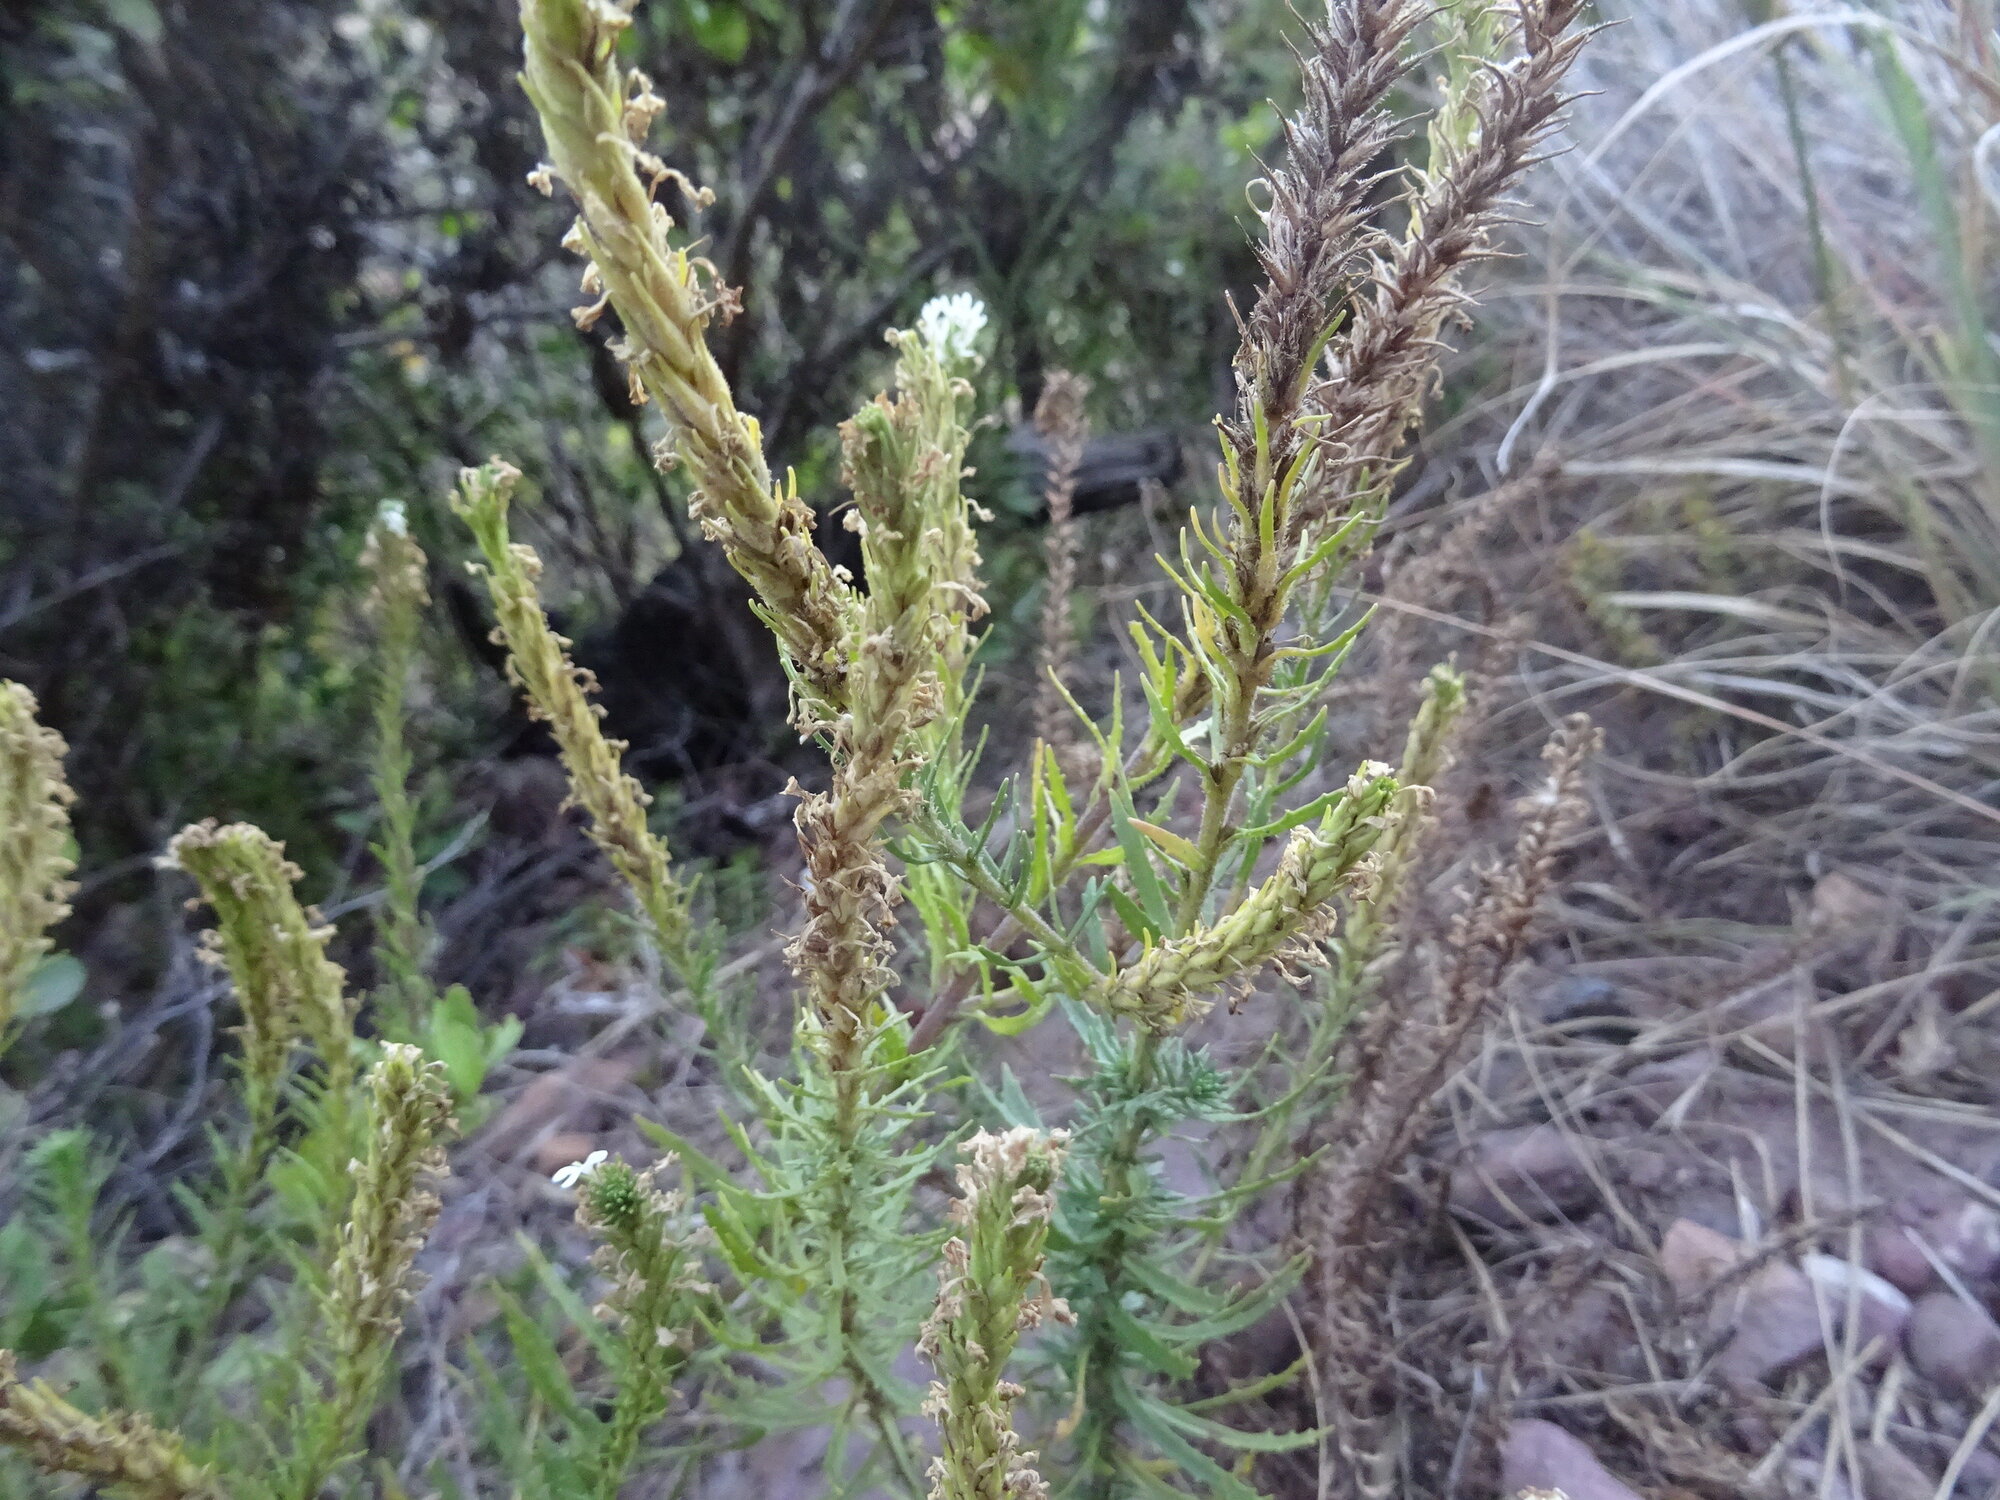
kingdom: Plantae
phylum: Tracheophyta
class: Magnoliopsida
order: Lamiales
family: Scrophulariaceae
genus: Dischisma
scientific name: Dischisma ciliatum
